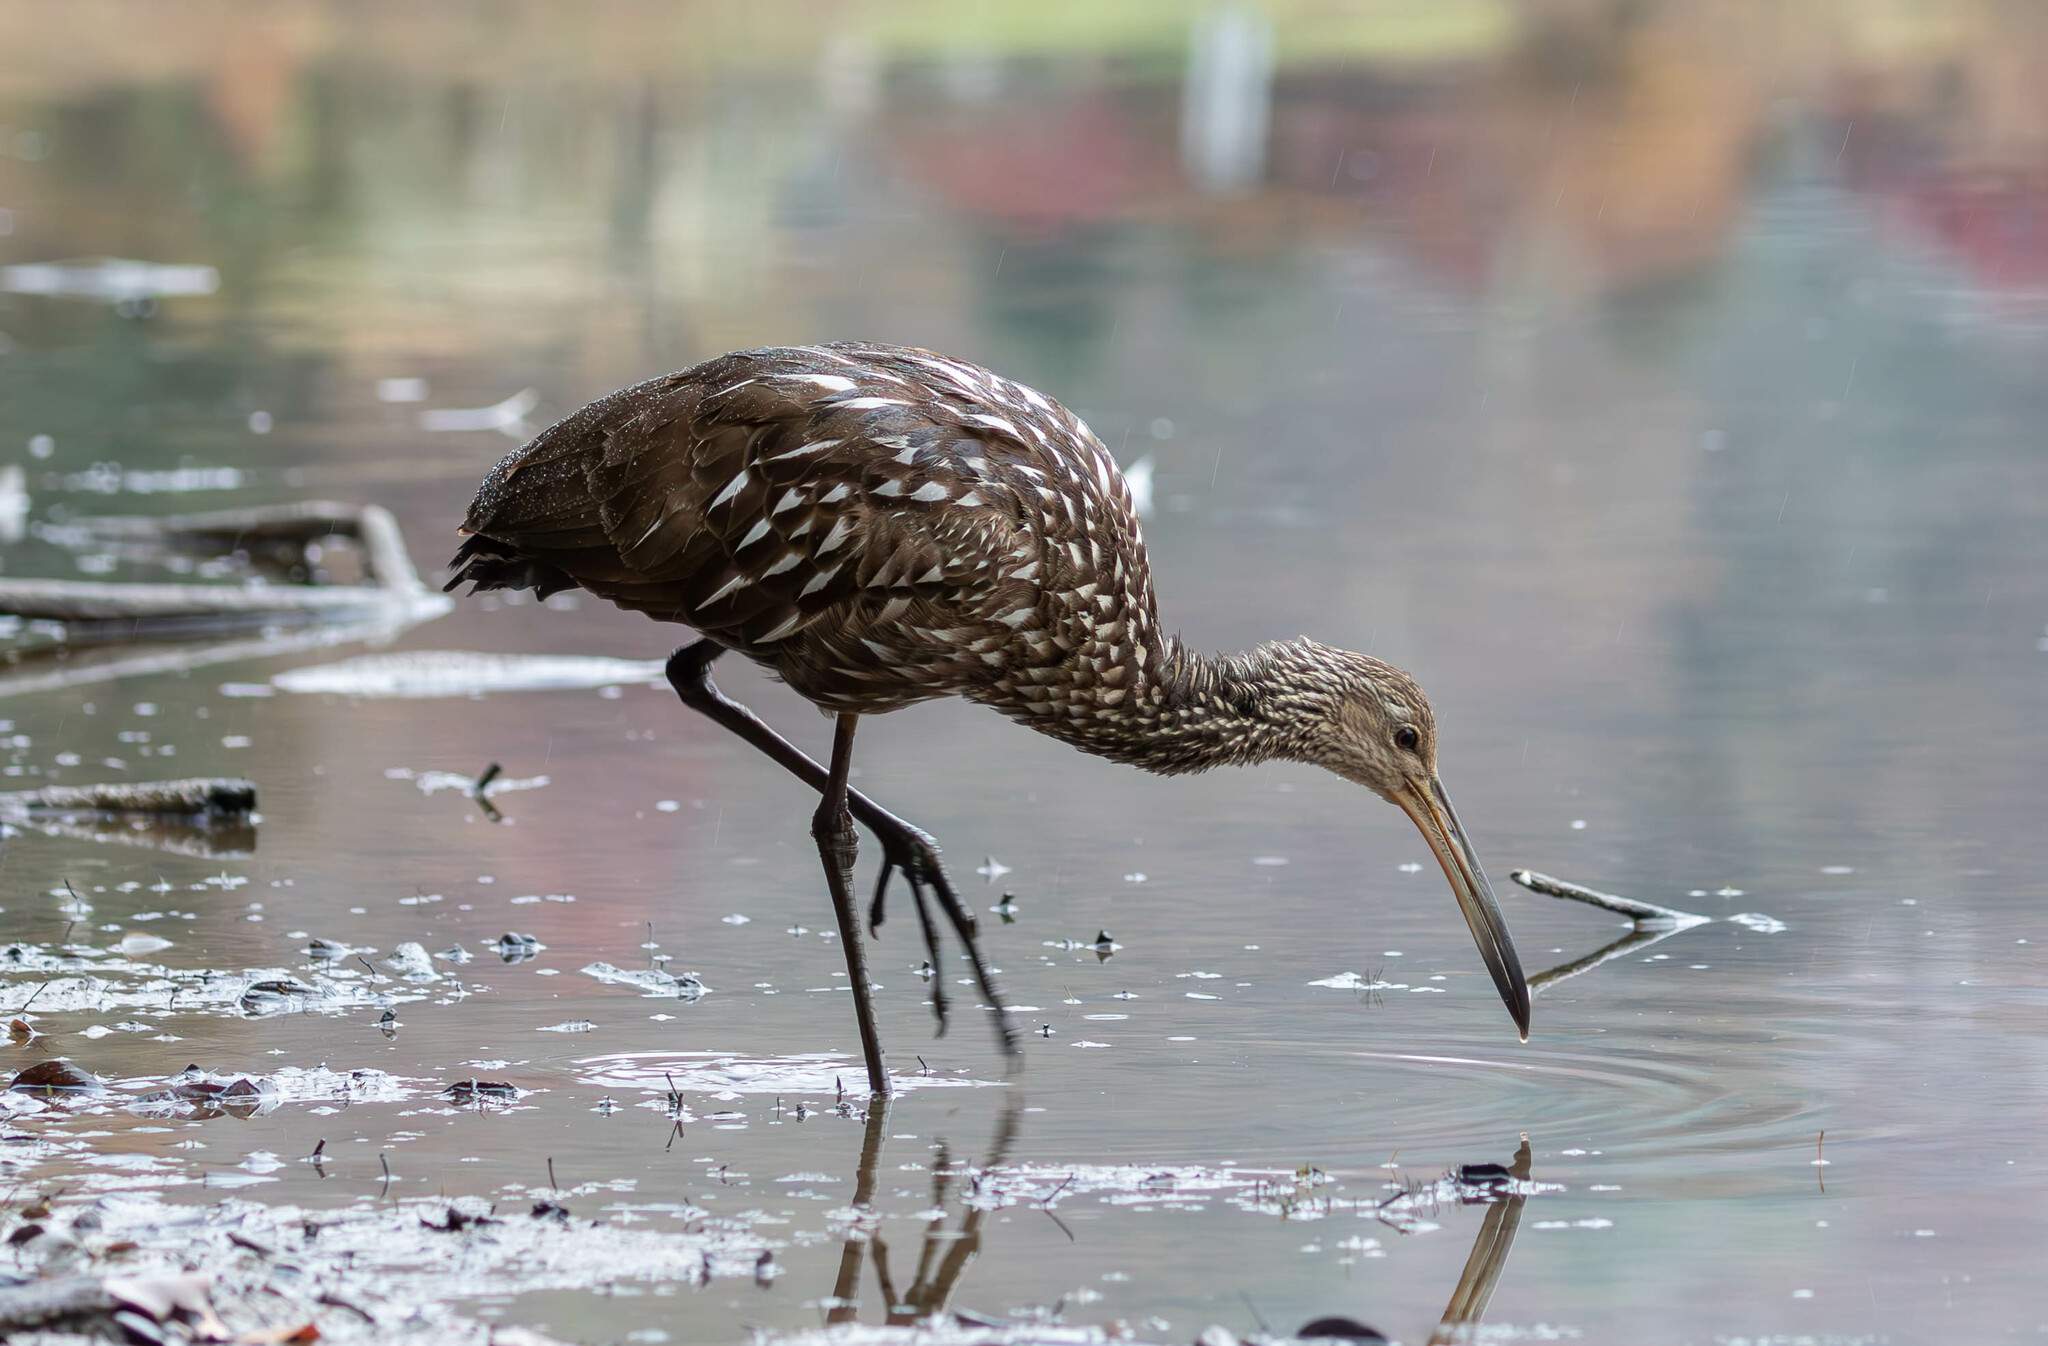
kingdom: Animalia
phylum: Chordata
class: Aves
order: Gruiformes
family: Aramidae
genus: Aramus
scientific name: Aramus guarauna
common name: Limpkin
